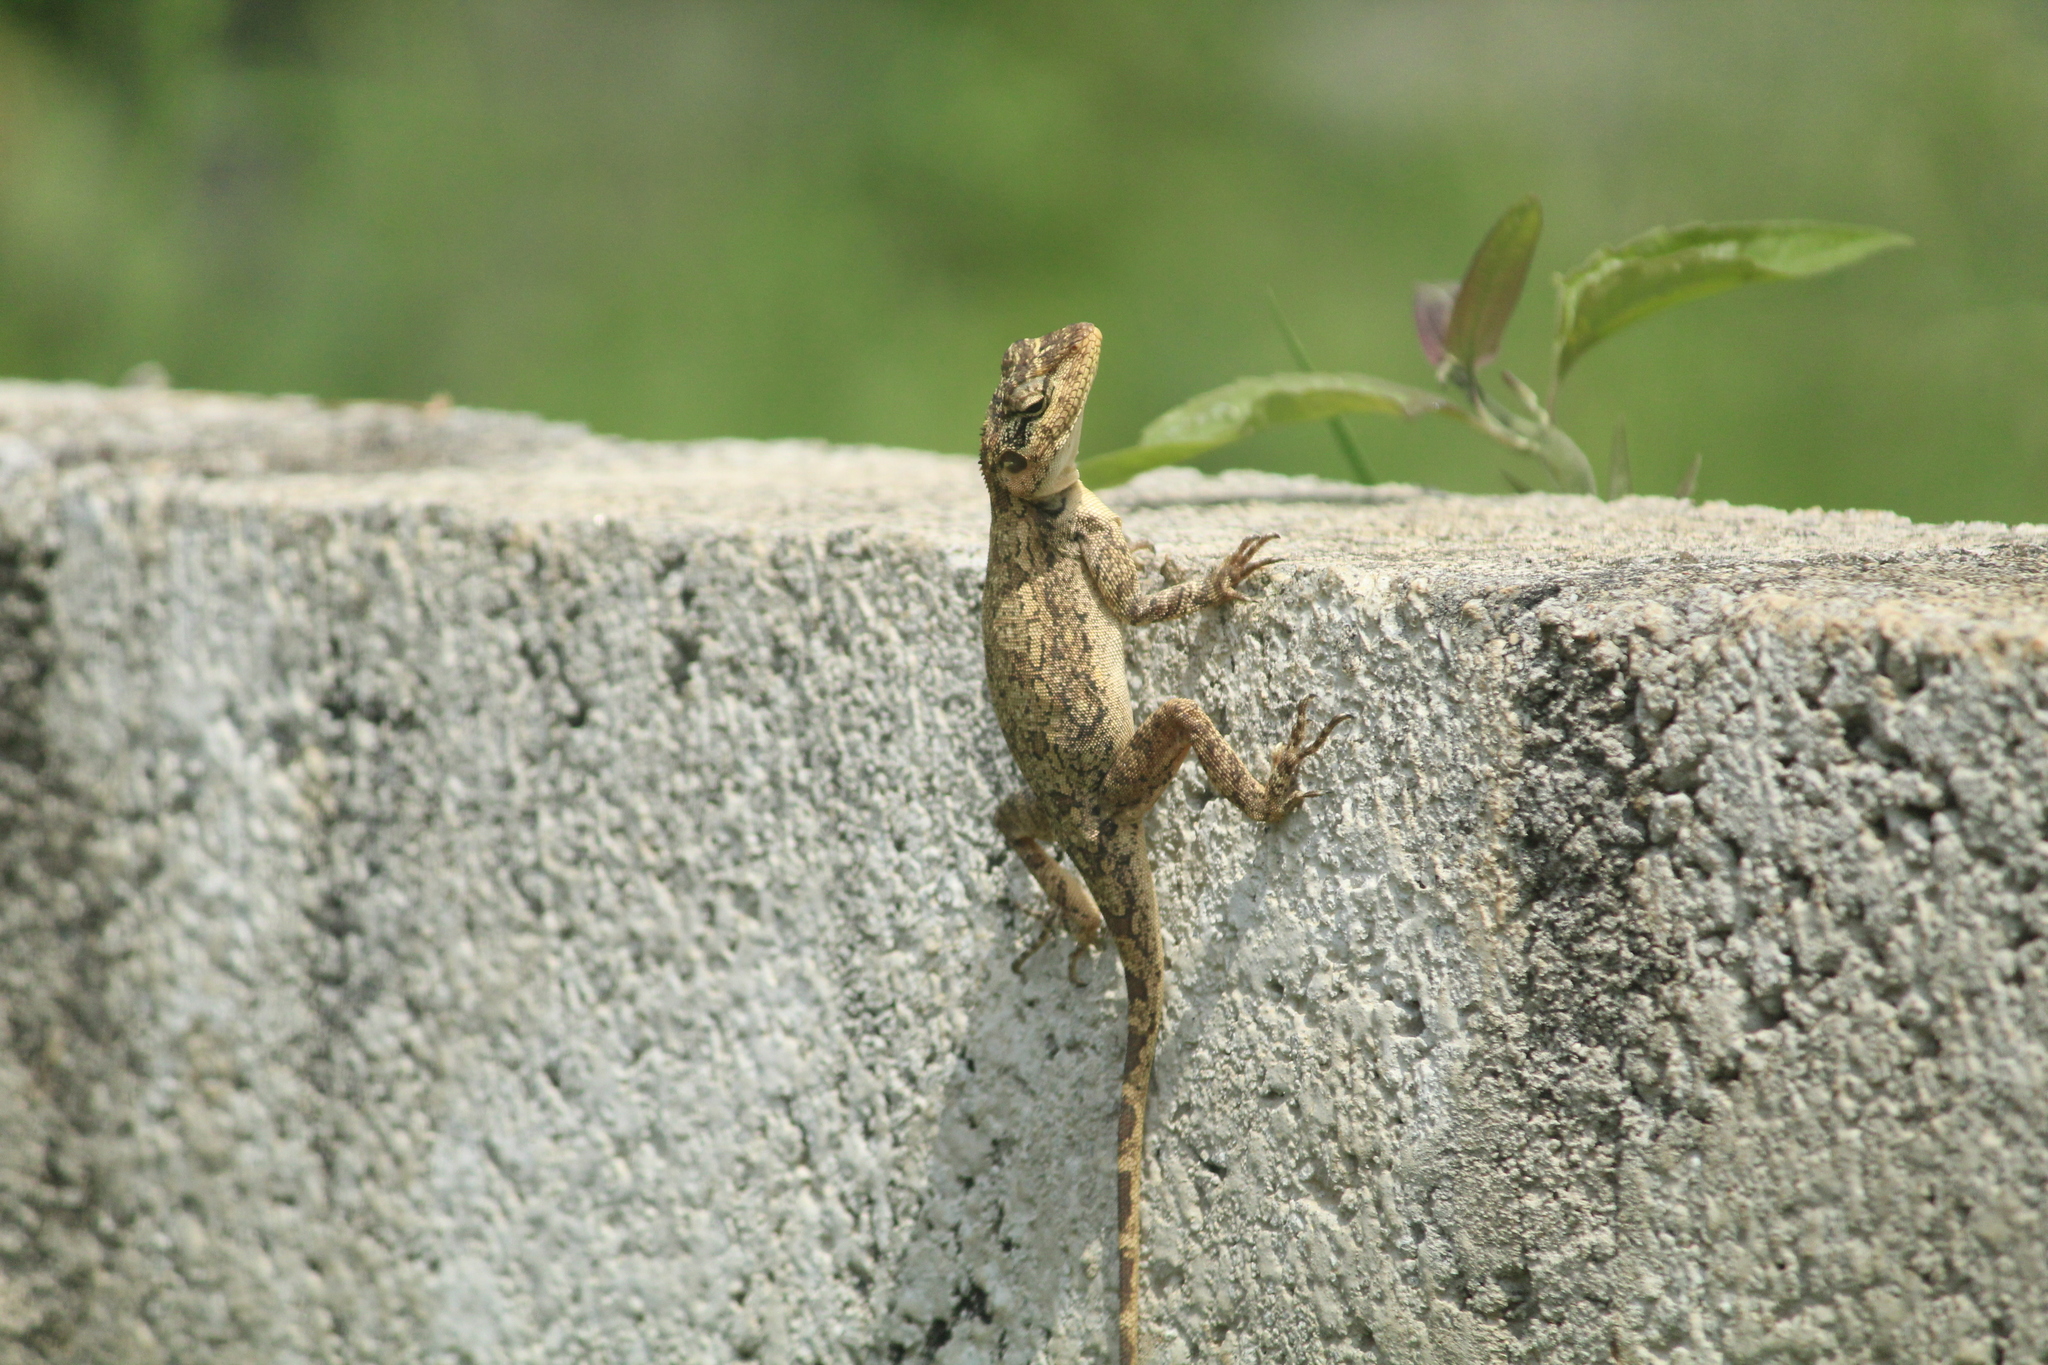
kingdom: Animalia
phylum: Chordata
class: Squamata
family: Agamidae
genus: Psammophilus
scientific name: Psammophilus dorsalis
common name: South indian rock agama
